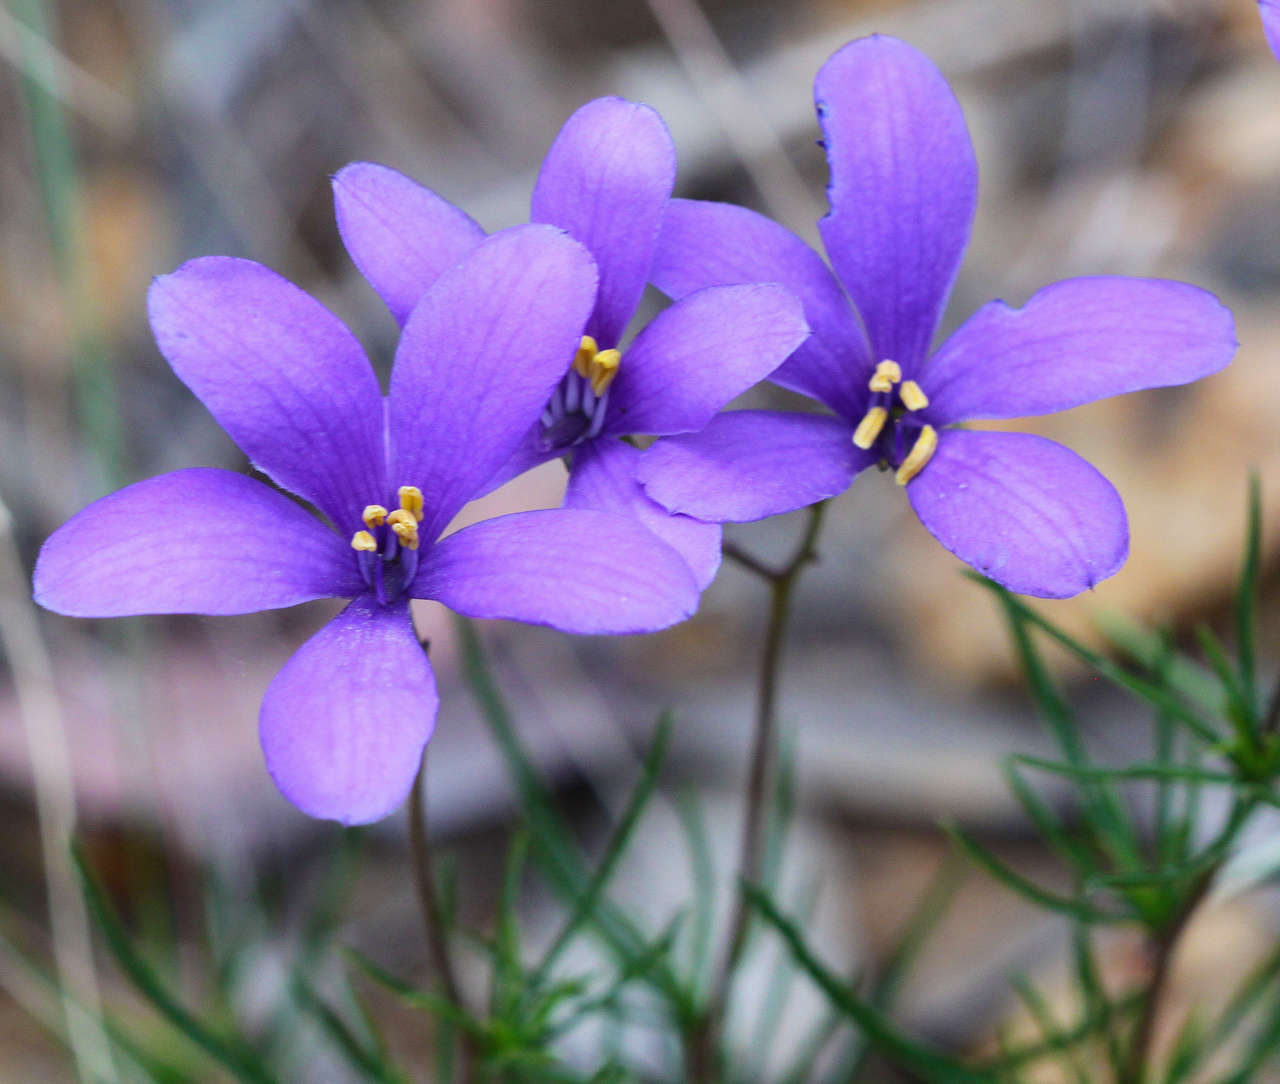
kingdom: Plantae
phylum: Tracheophyta
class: Magnoliopsida
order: Apiales
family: Pittosporaceae
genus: Cheiranthera
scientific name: Cheiranthera linearis
